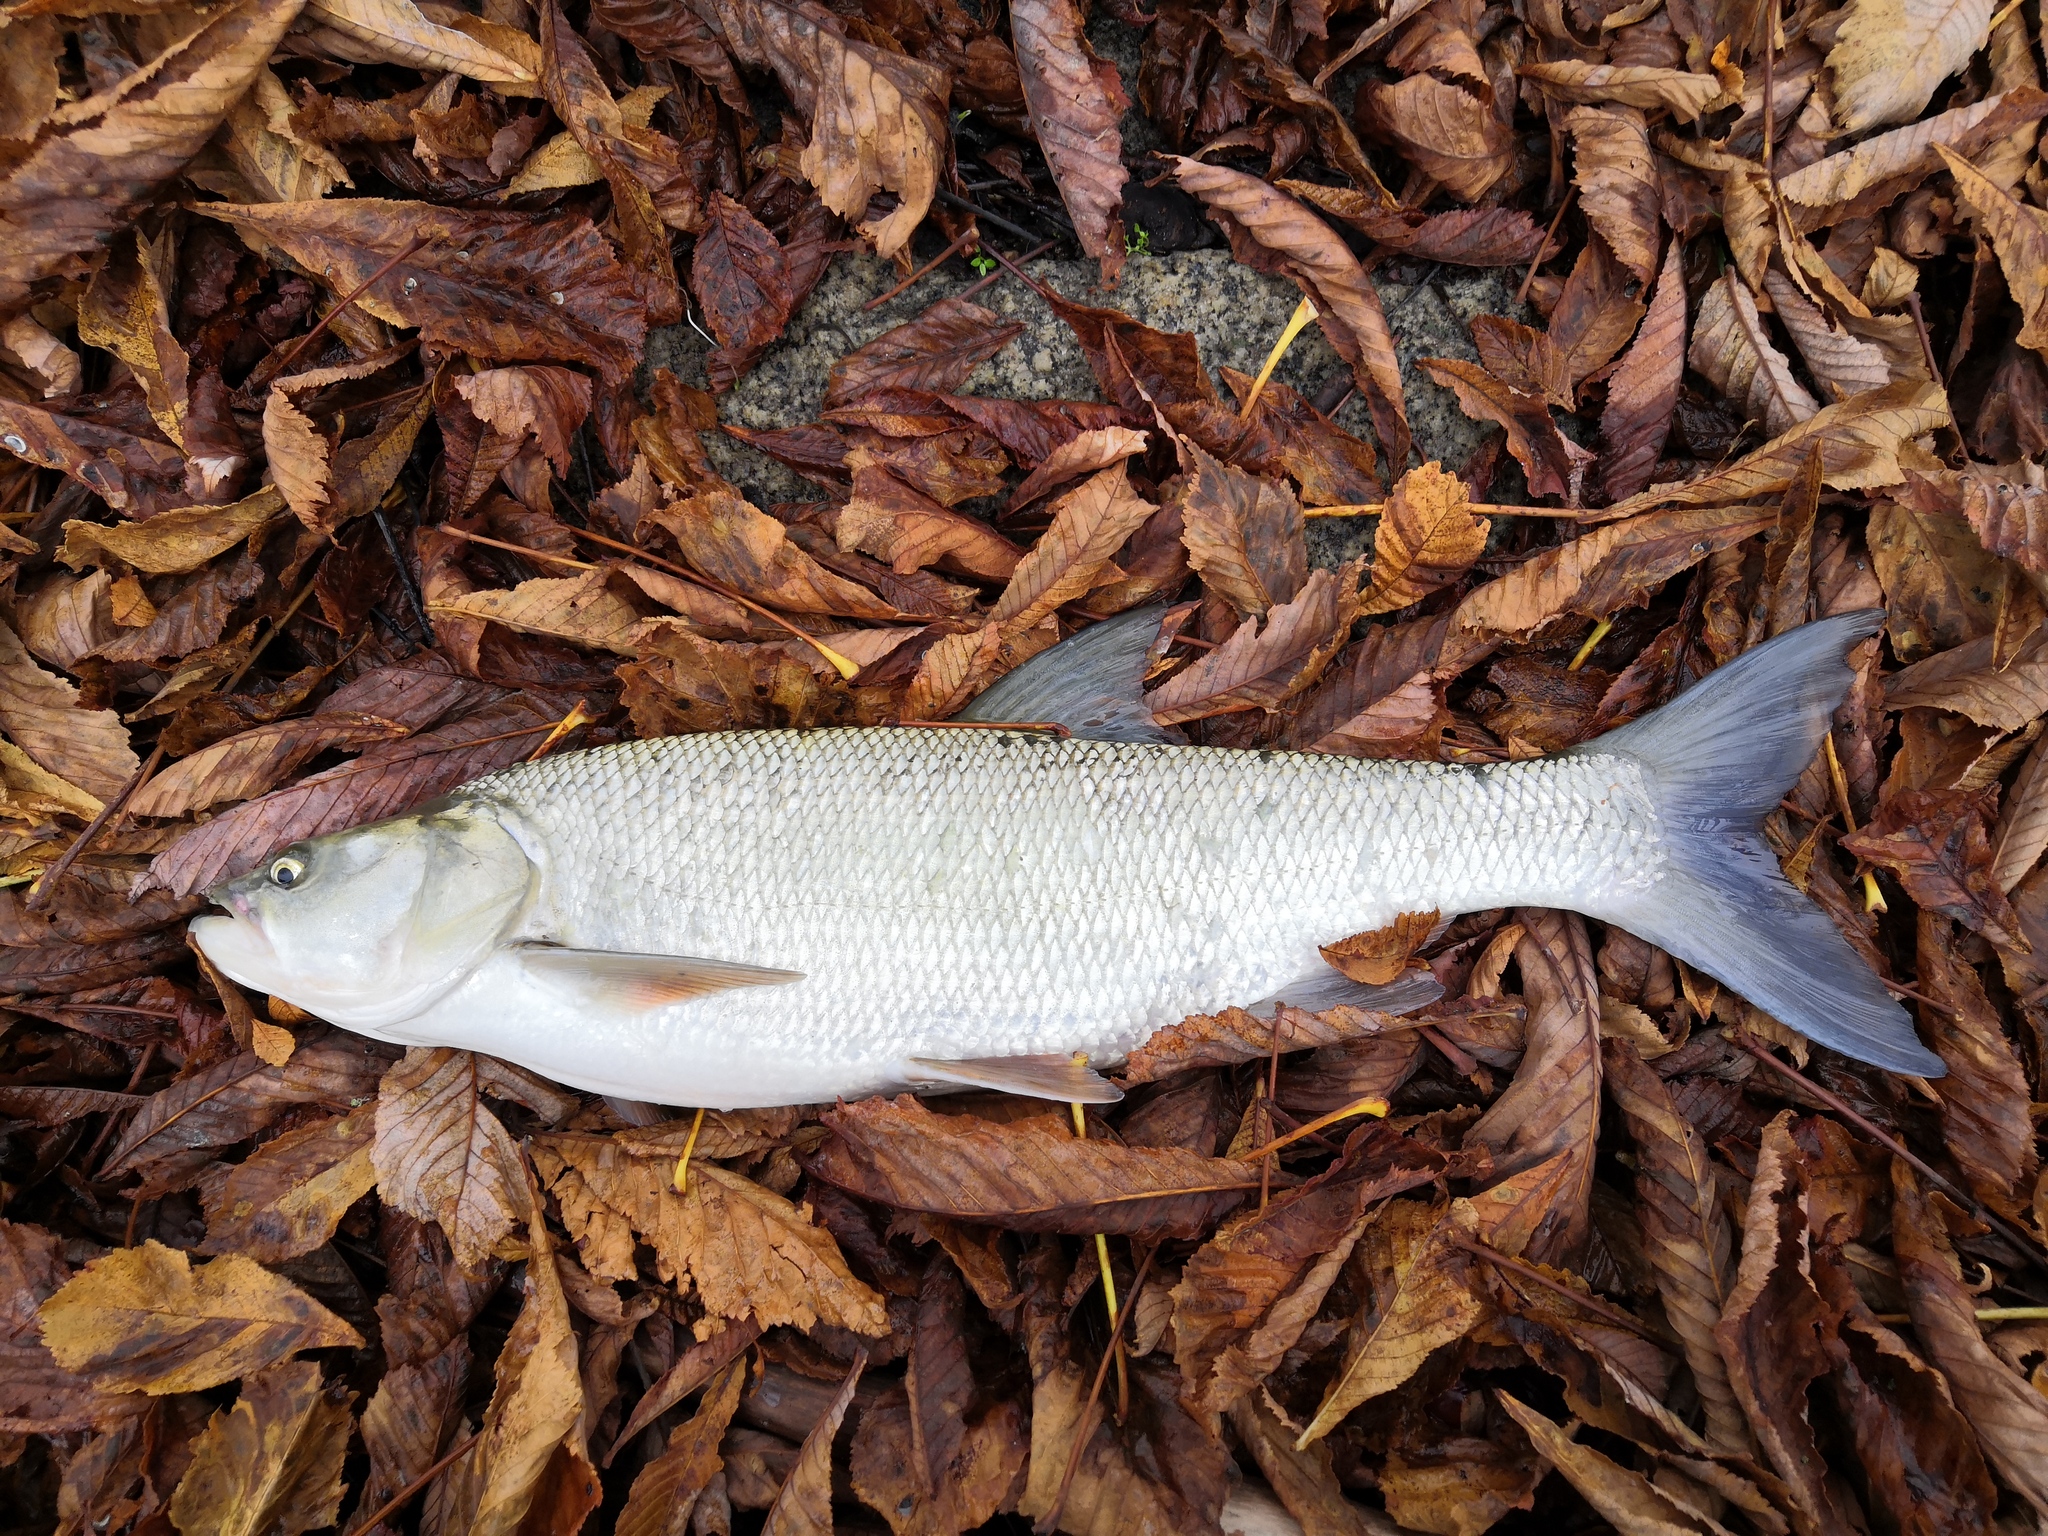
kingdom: Animalia
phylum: Chordata
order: Cypriniformes
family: Cyprinidae
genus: Leuciscus
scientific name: Leuciscus aspius
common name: Asp
